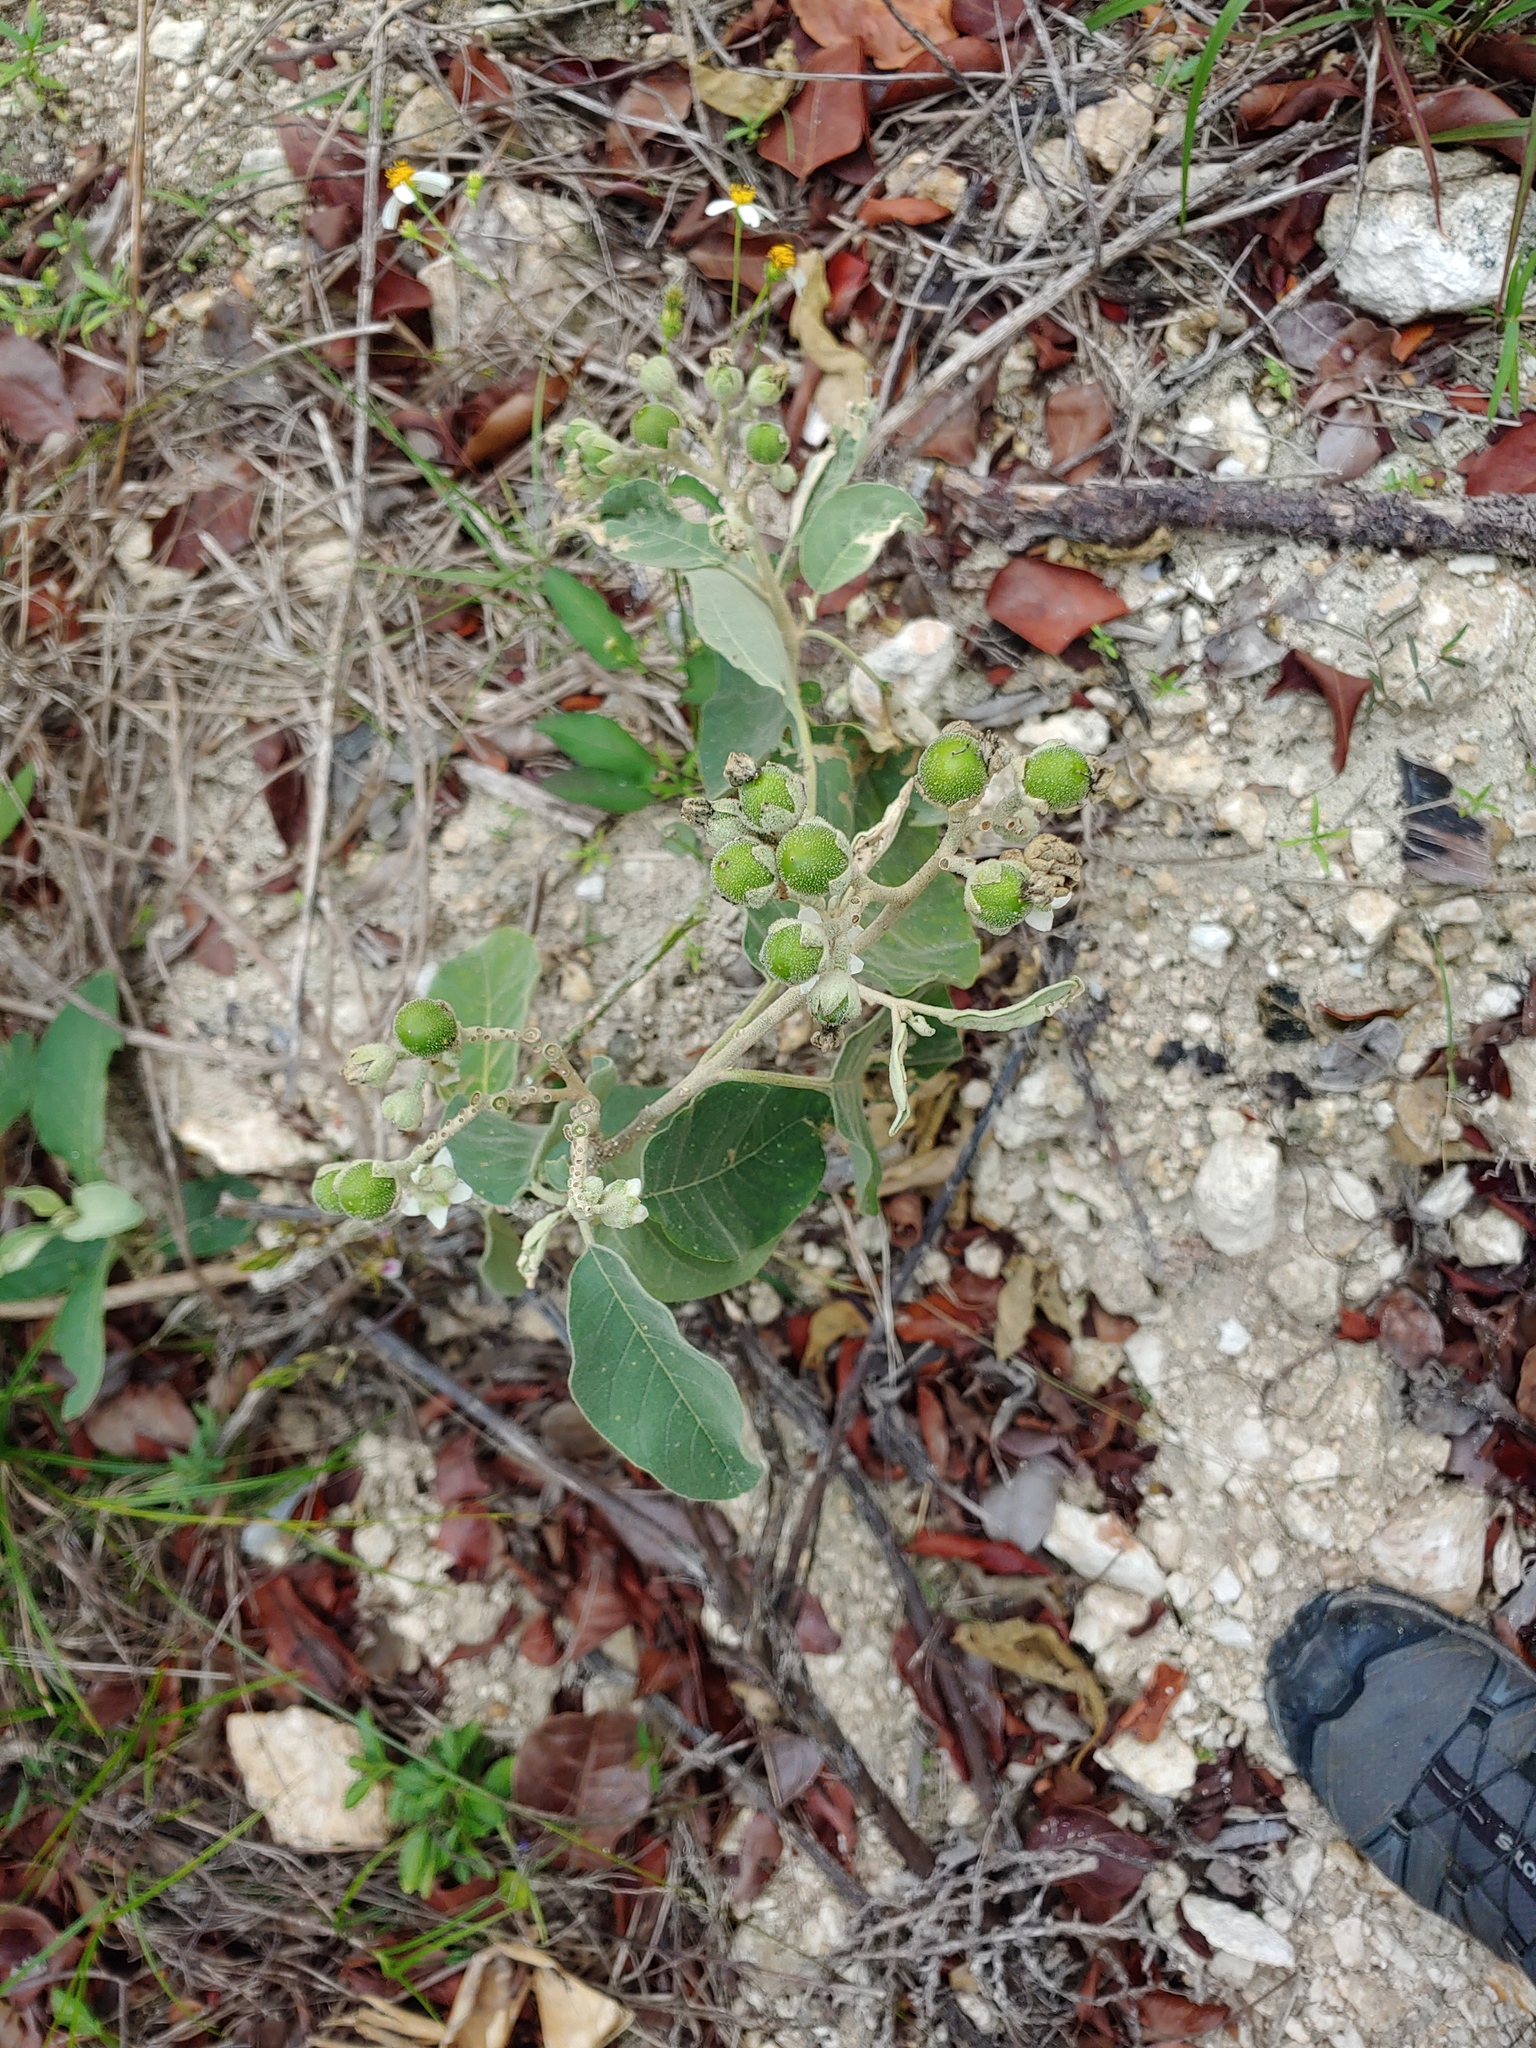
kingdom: Plantae
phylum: Tracheophyta
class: Magnoliopsida
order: Solanales
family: Solanaceae
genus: Solanum
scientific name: Solanum erianthum
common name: Tobacco-tree
